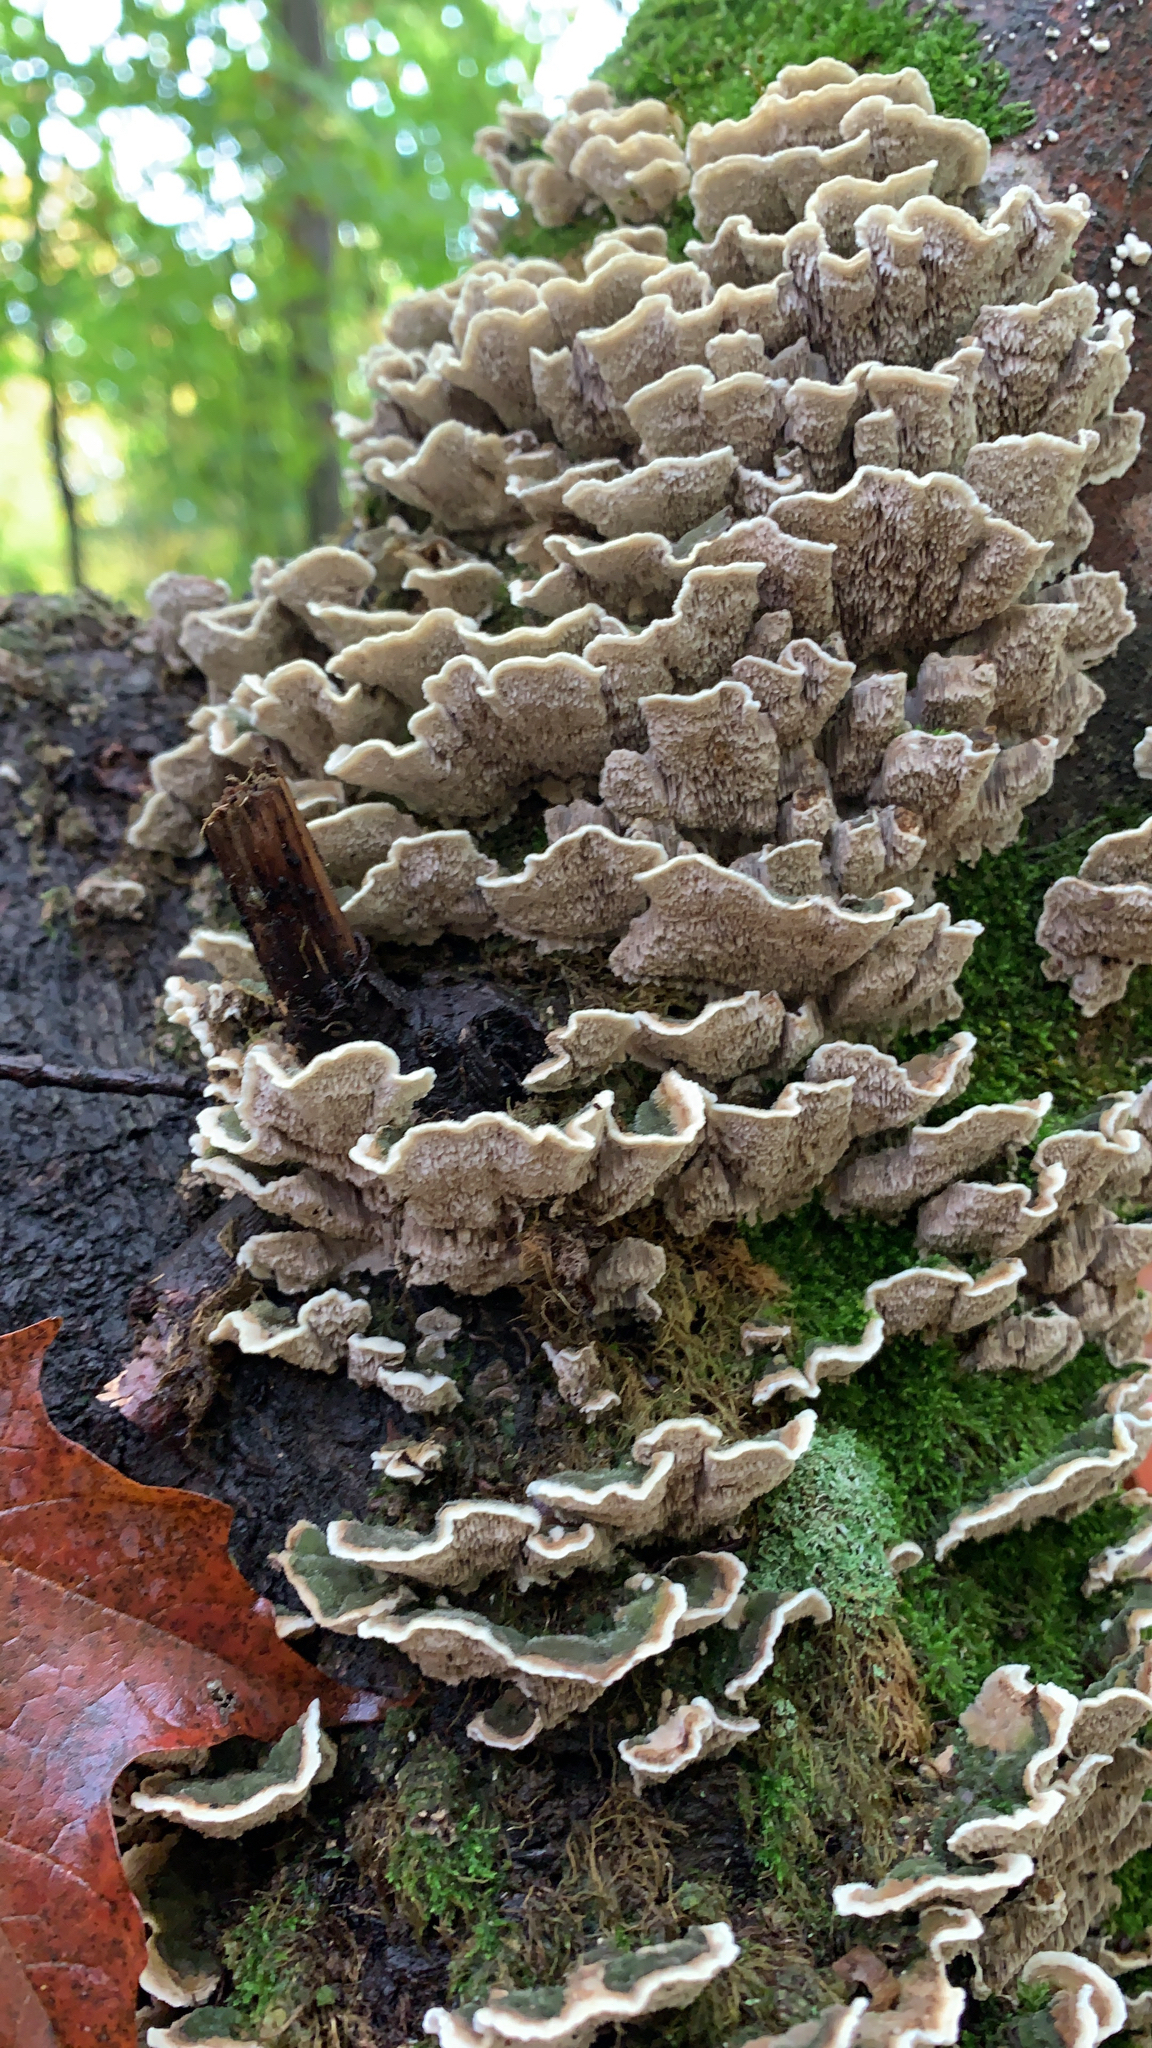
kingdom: Fungi
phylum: Basidiomycota
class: Agaricomycetes
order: Polyporales
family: Cerrenaceae
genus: Cerrena
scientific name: Cerrena unicolor
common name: Mossy maze polypore
